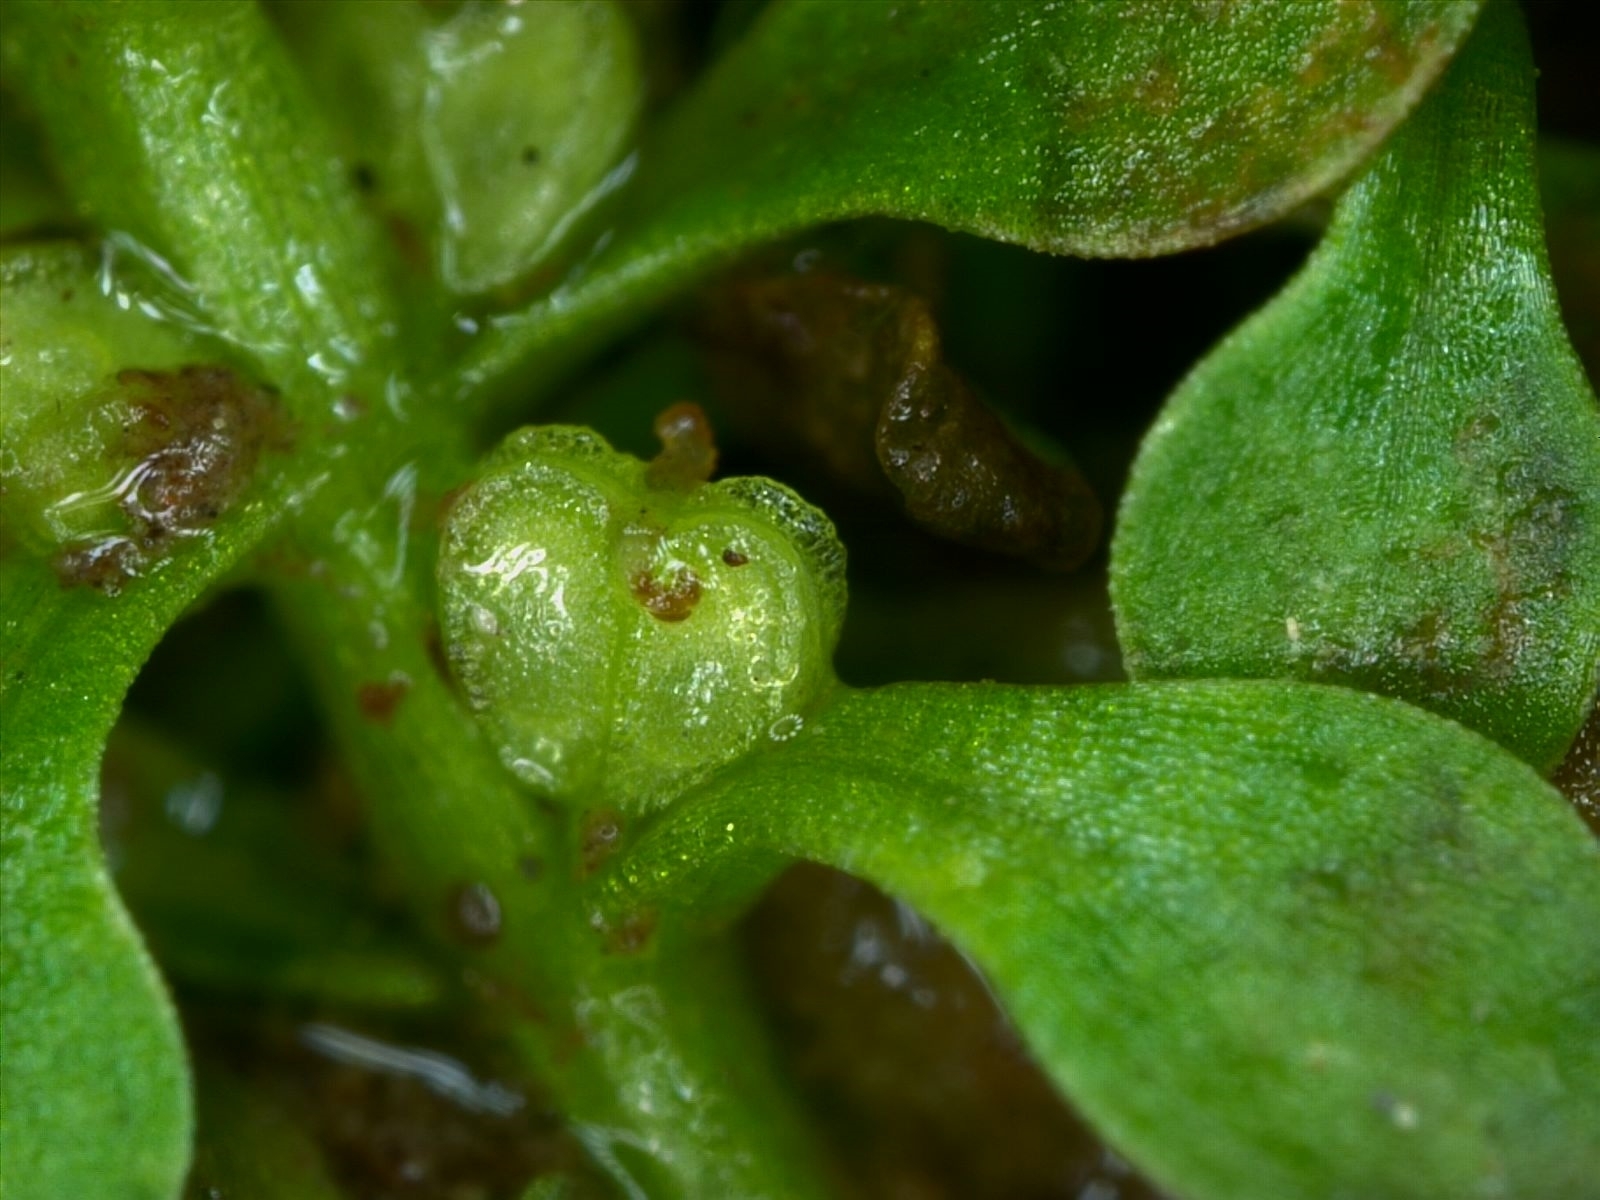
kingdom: Plantae
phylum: Tracheophyta
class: Magnoliopsida
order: Lamiales
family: Plantaginaceae
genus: Callitriche
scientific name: Callitriche japonica
